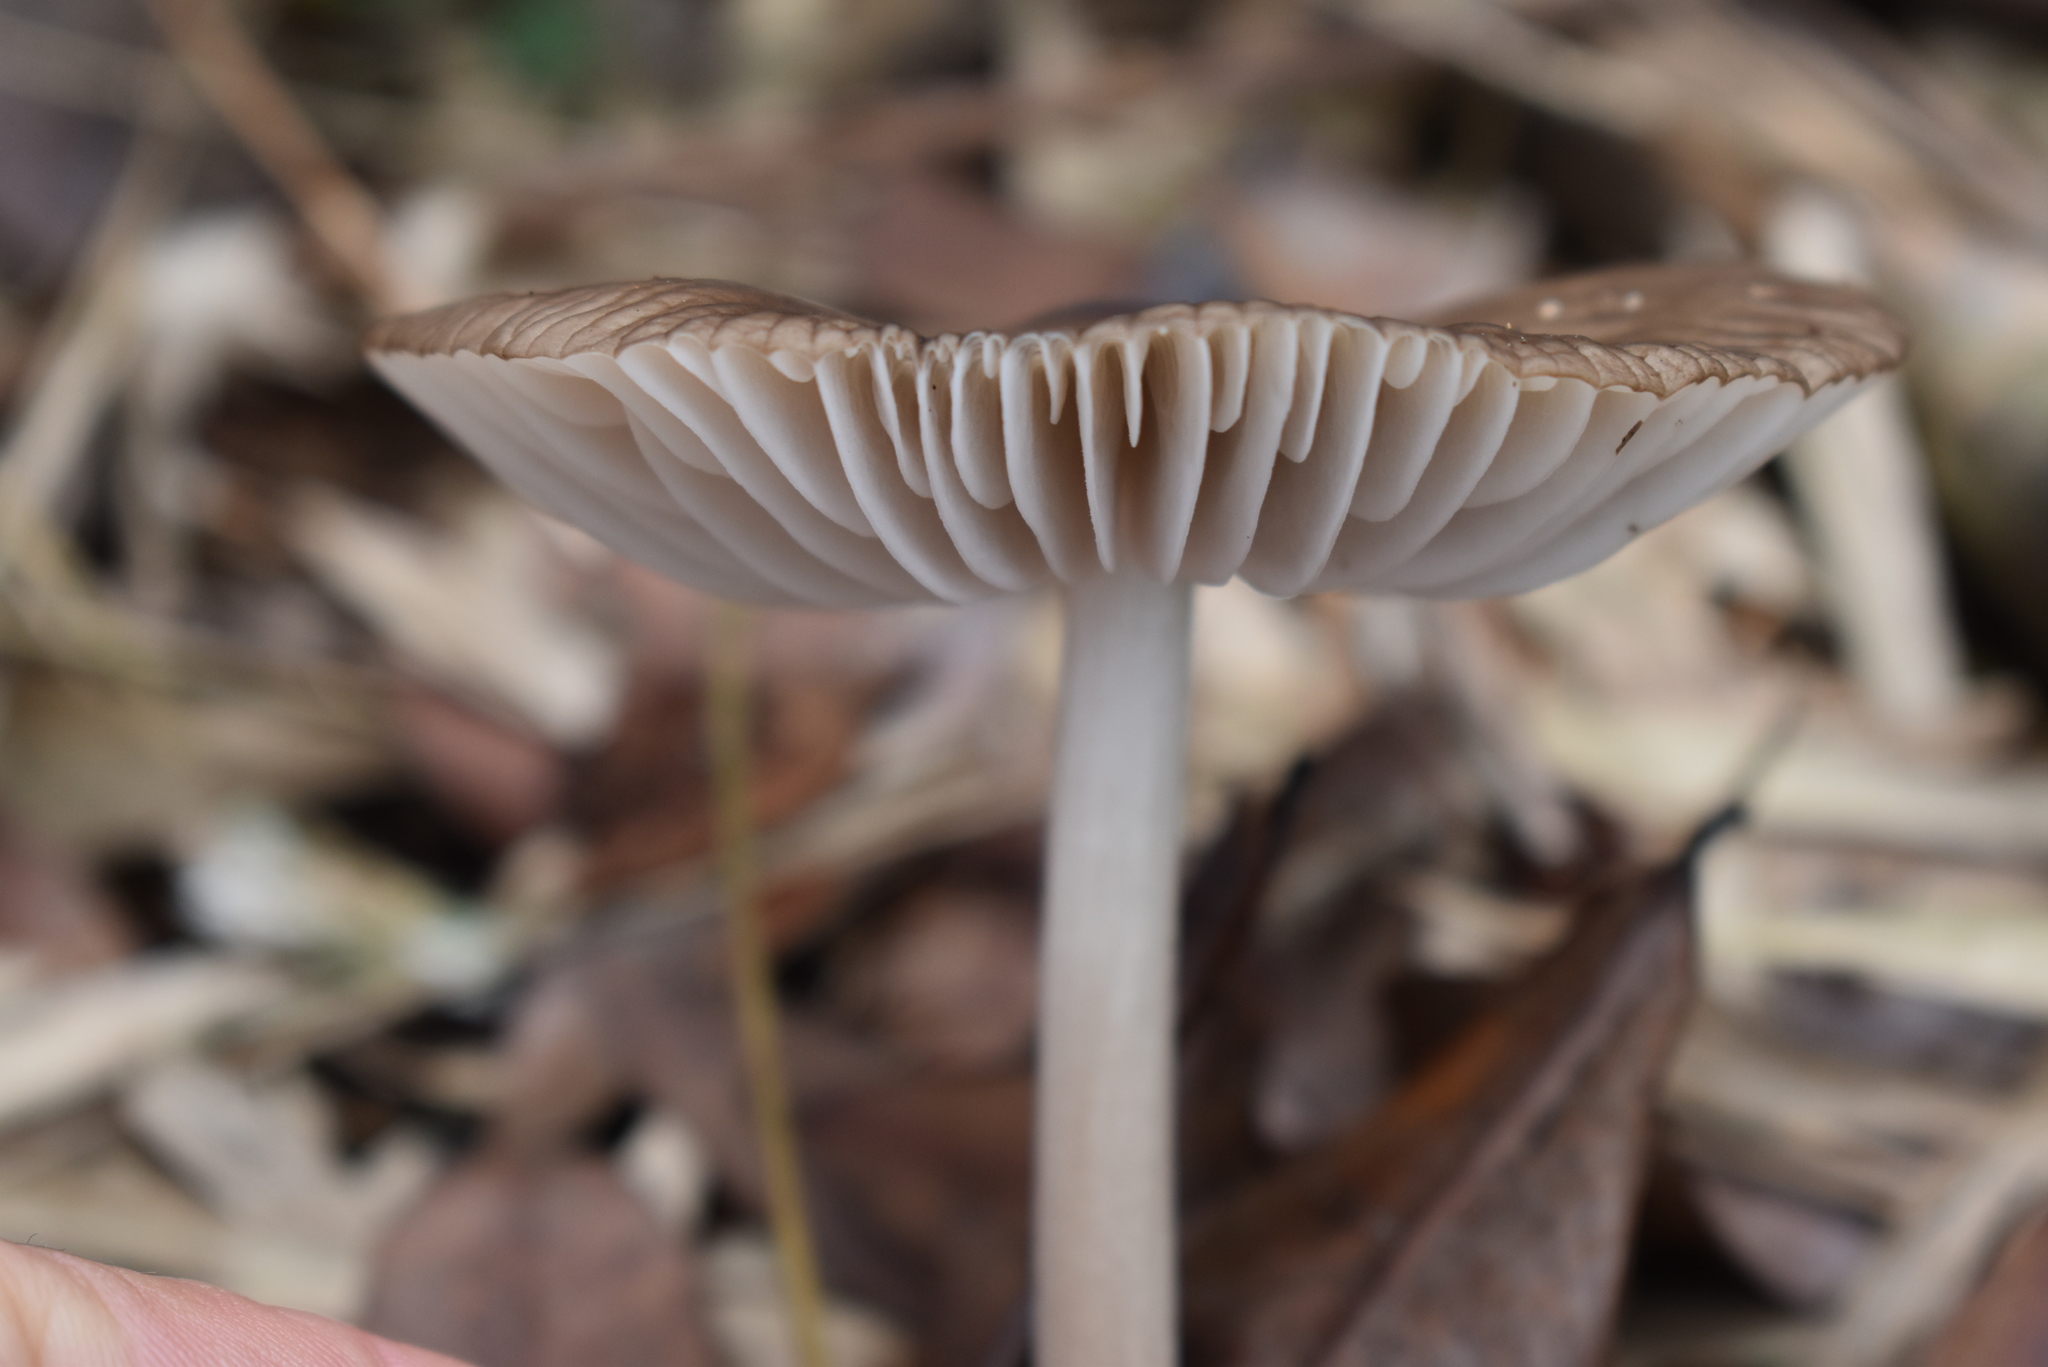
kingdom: Fungi
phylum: Basidiomycota
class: Agaricomycetes
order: Agaricales
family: Physalacriaceae
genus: Hymenopellis
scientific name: Hymenopellis radicata
